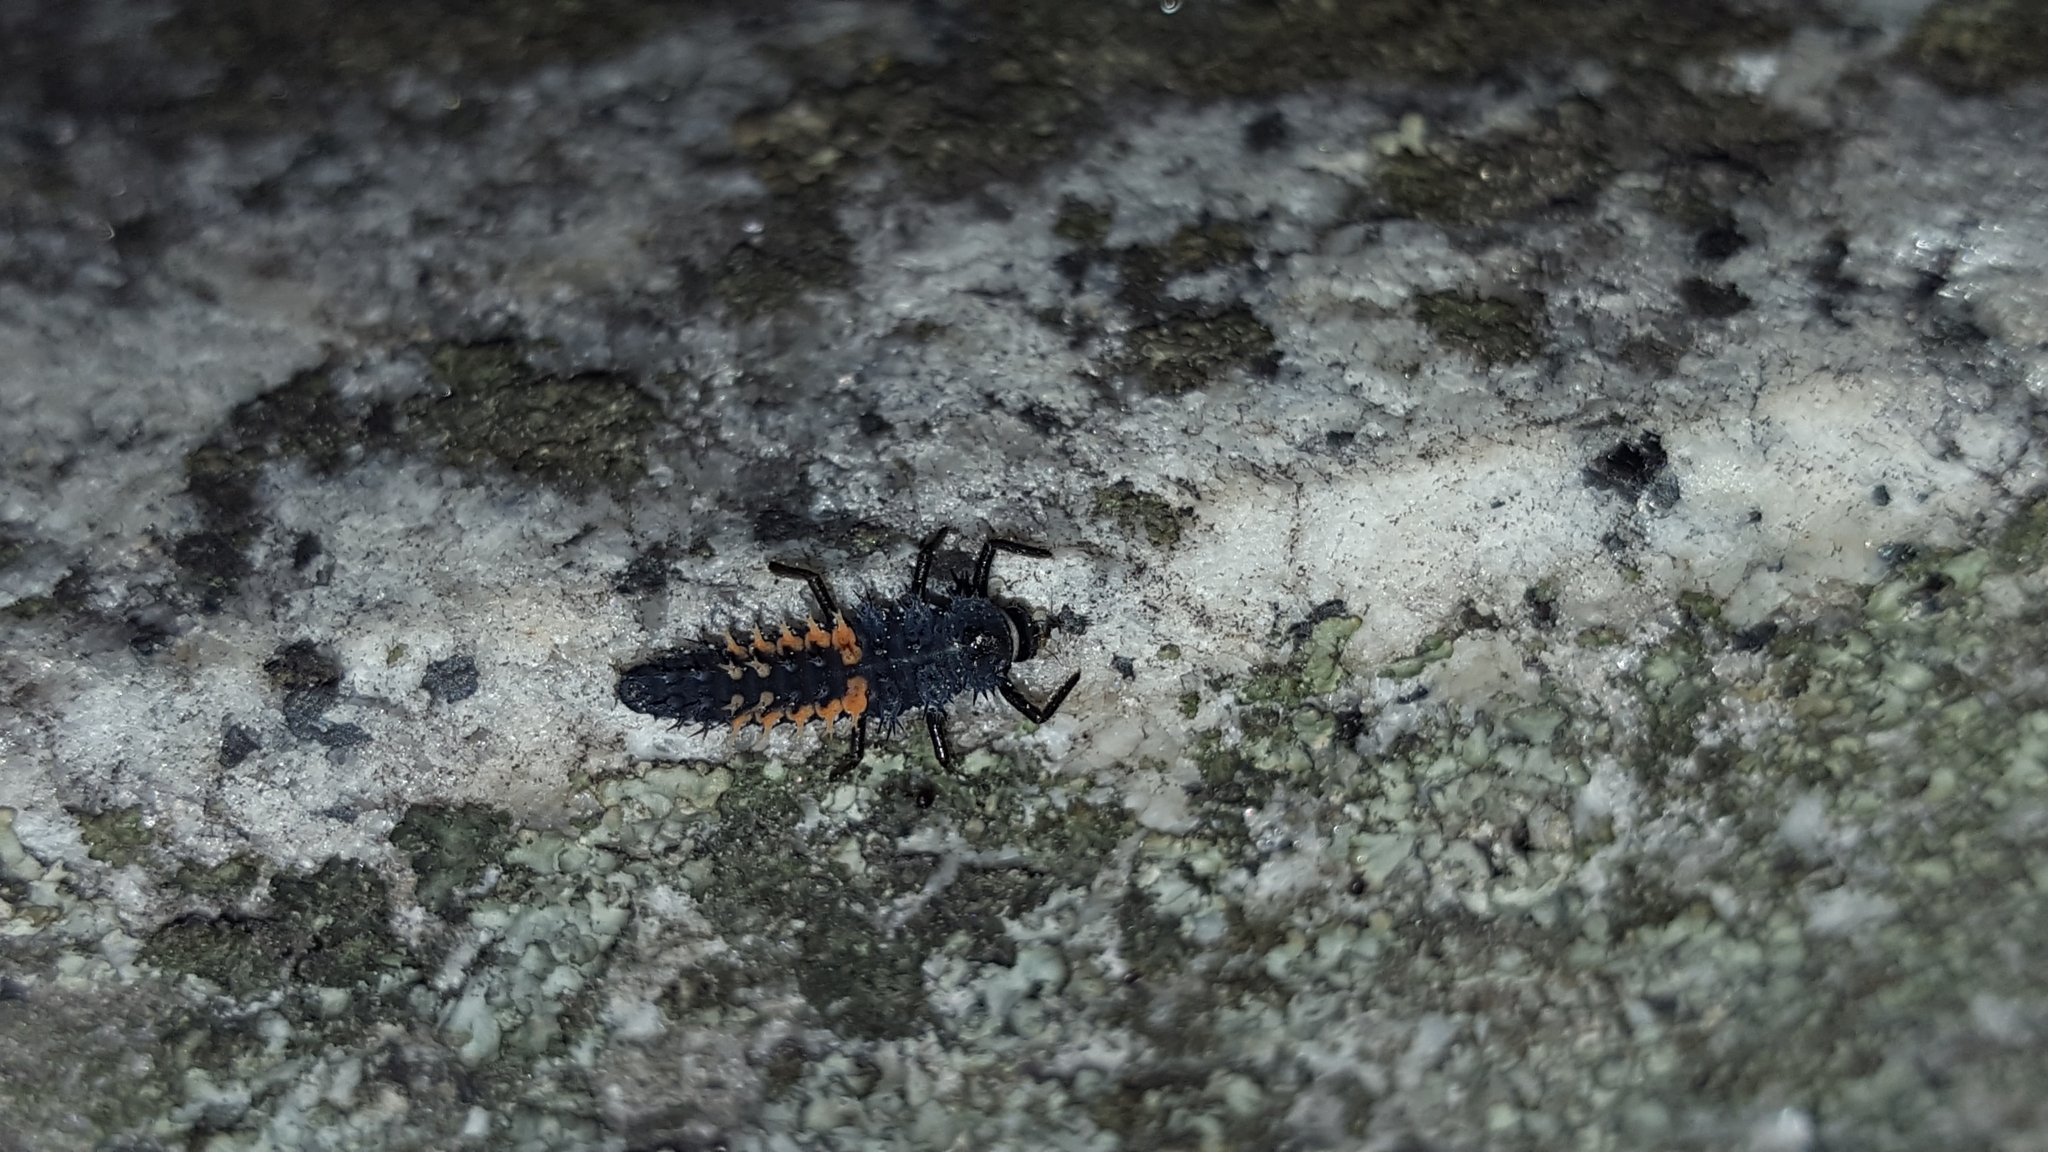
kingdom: Animalia
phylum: Arthropoda
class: Insecta
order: Coleoptera
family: Coccinellidae
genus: Harmonia
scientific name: Harmonia axyridis
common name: Harlequin ladybird
